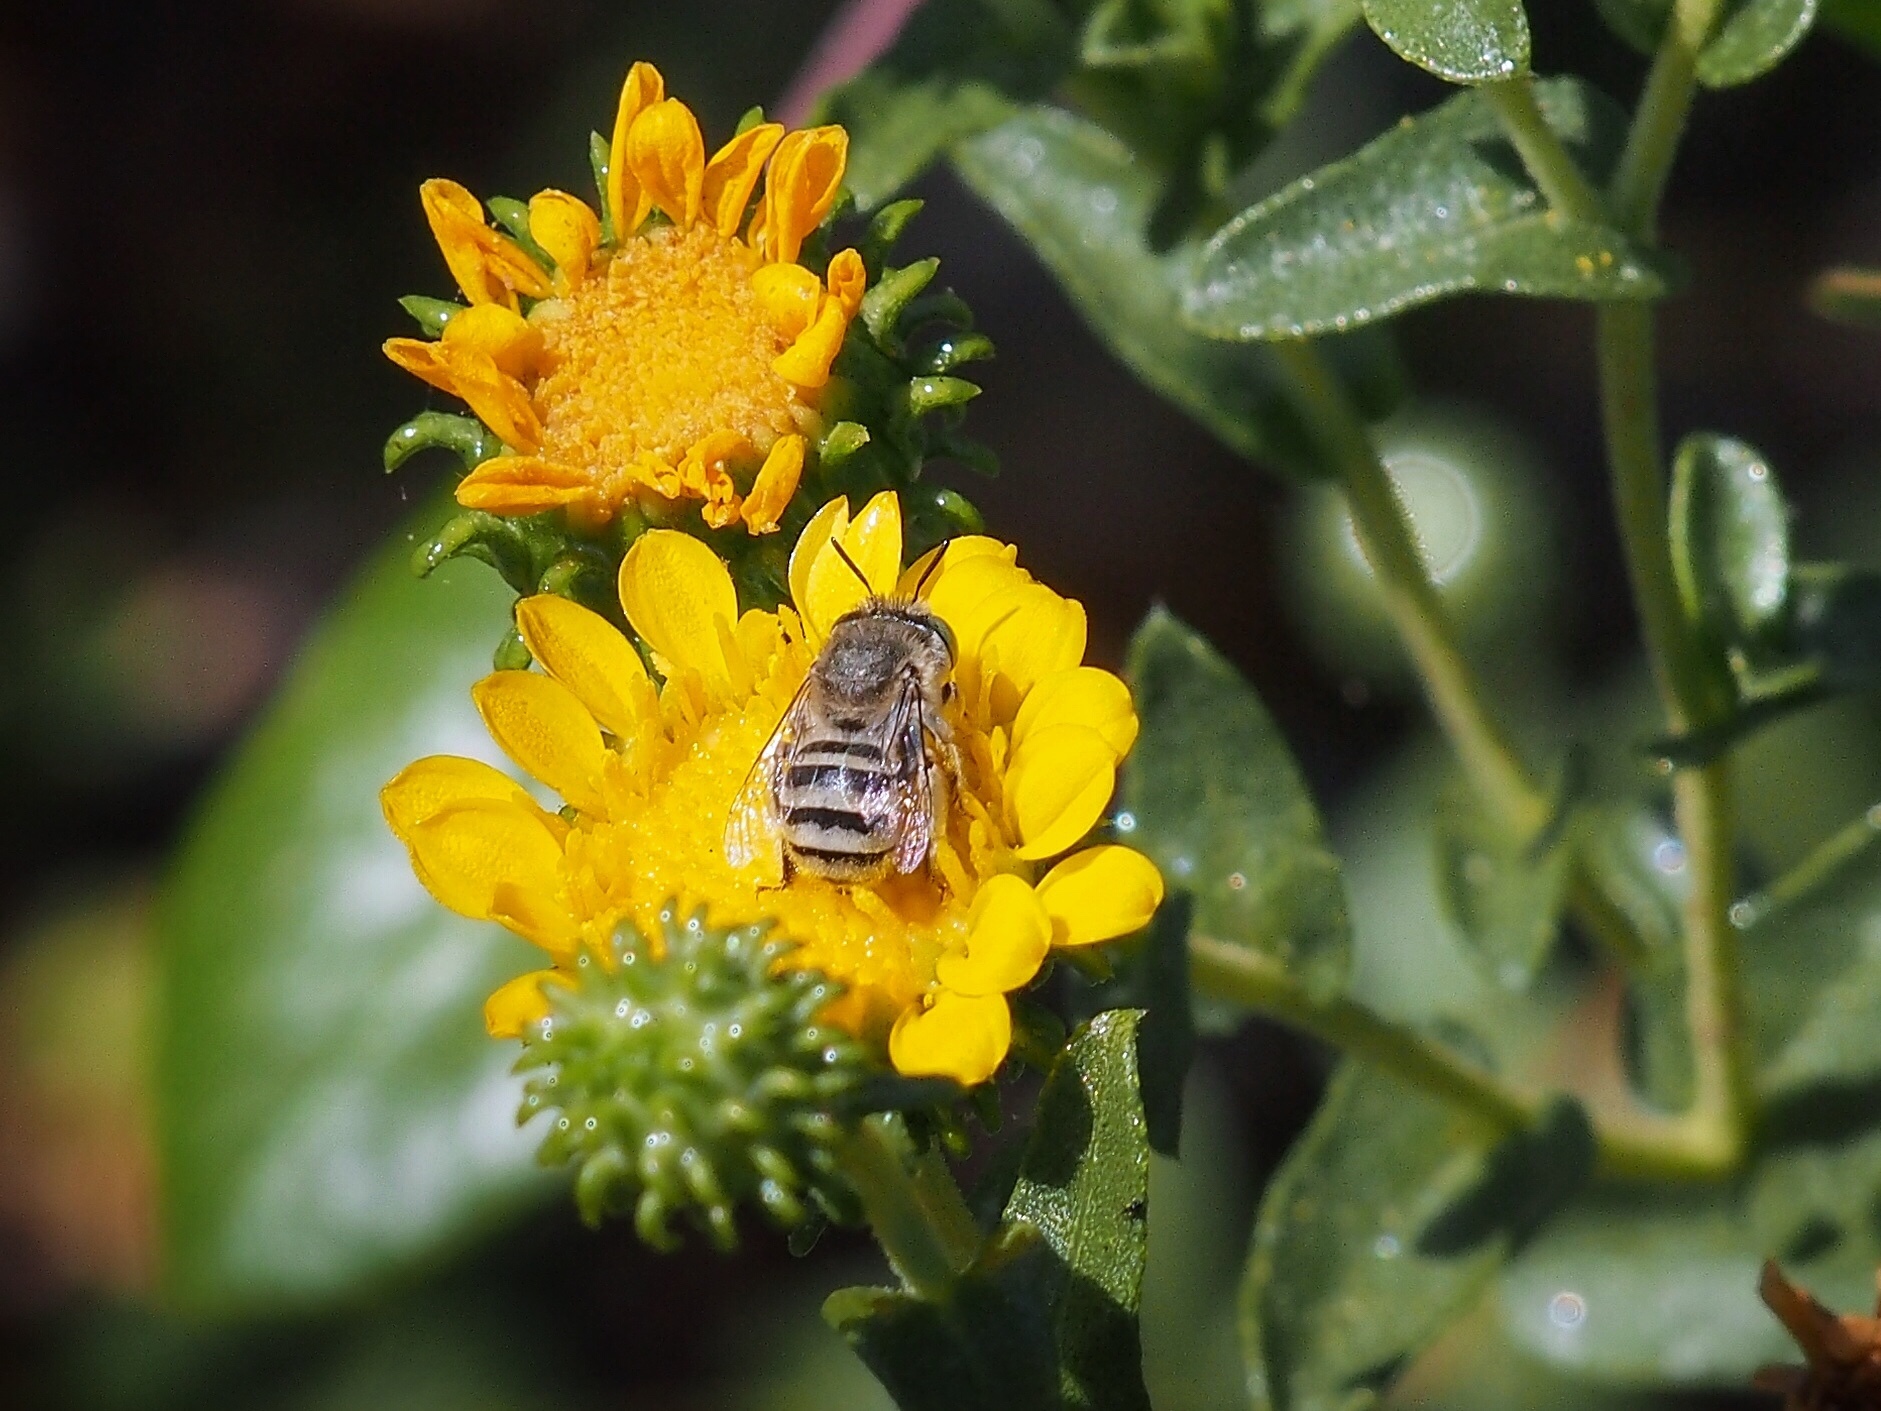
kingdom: Animalia
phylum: Arthropoda
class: Insecta
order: Hymenoptera
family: Apidae
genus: Anthophora
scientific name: Anthophora curta
